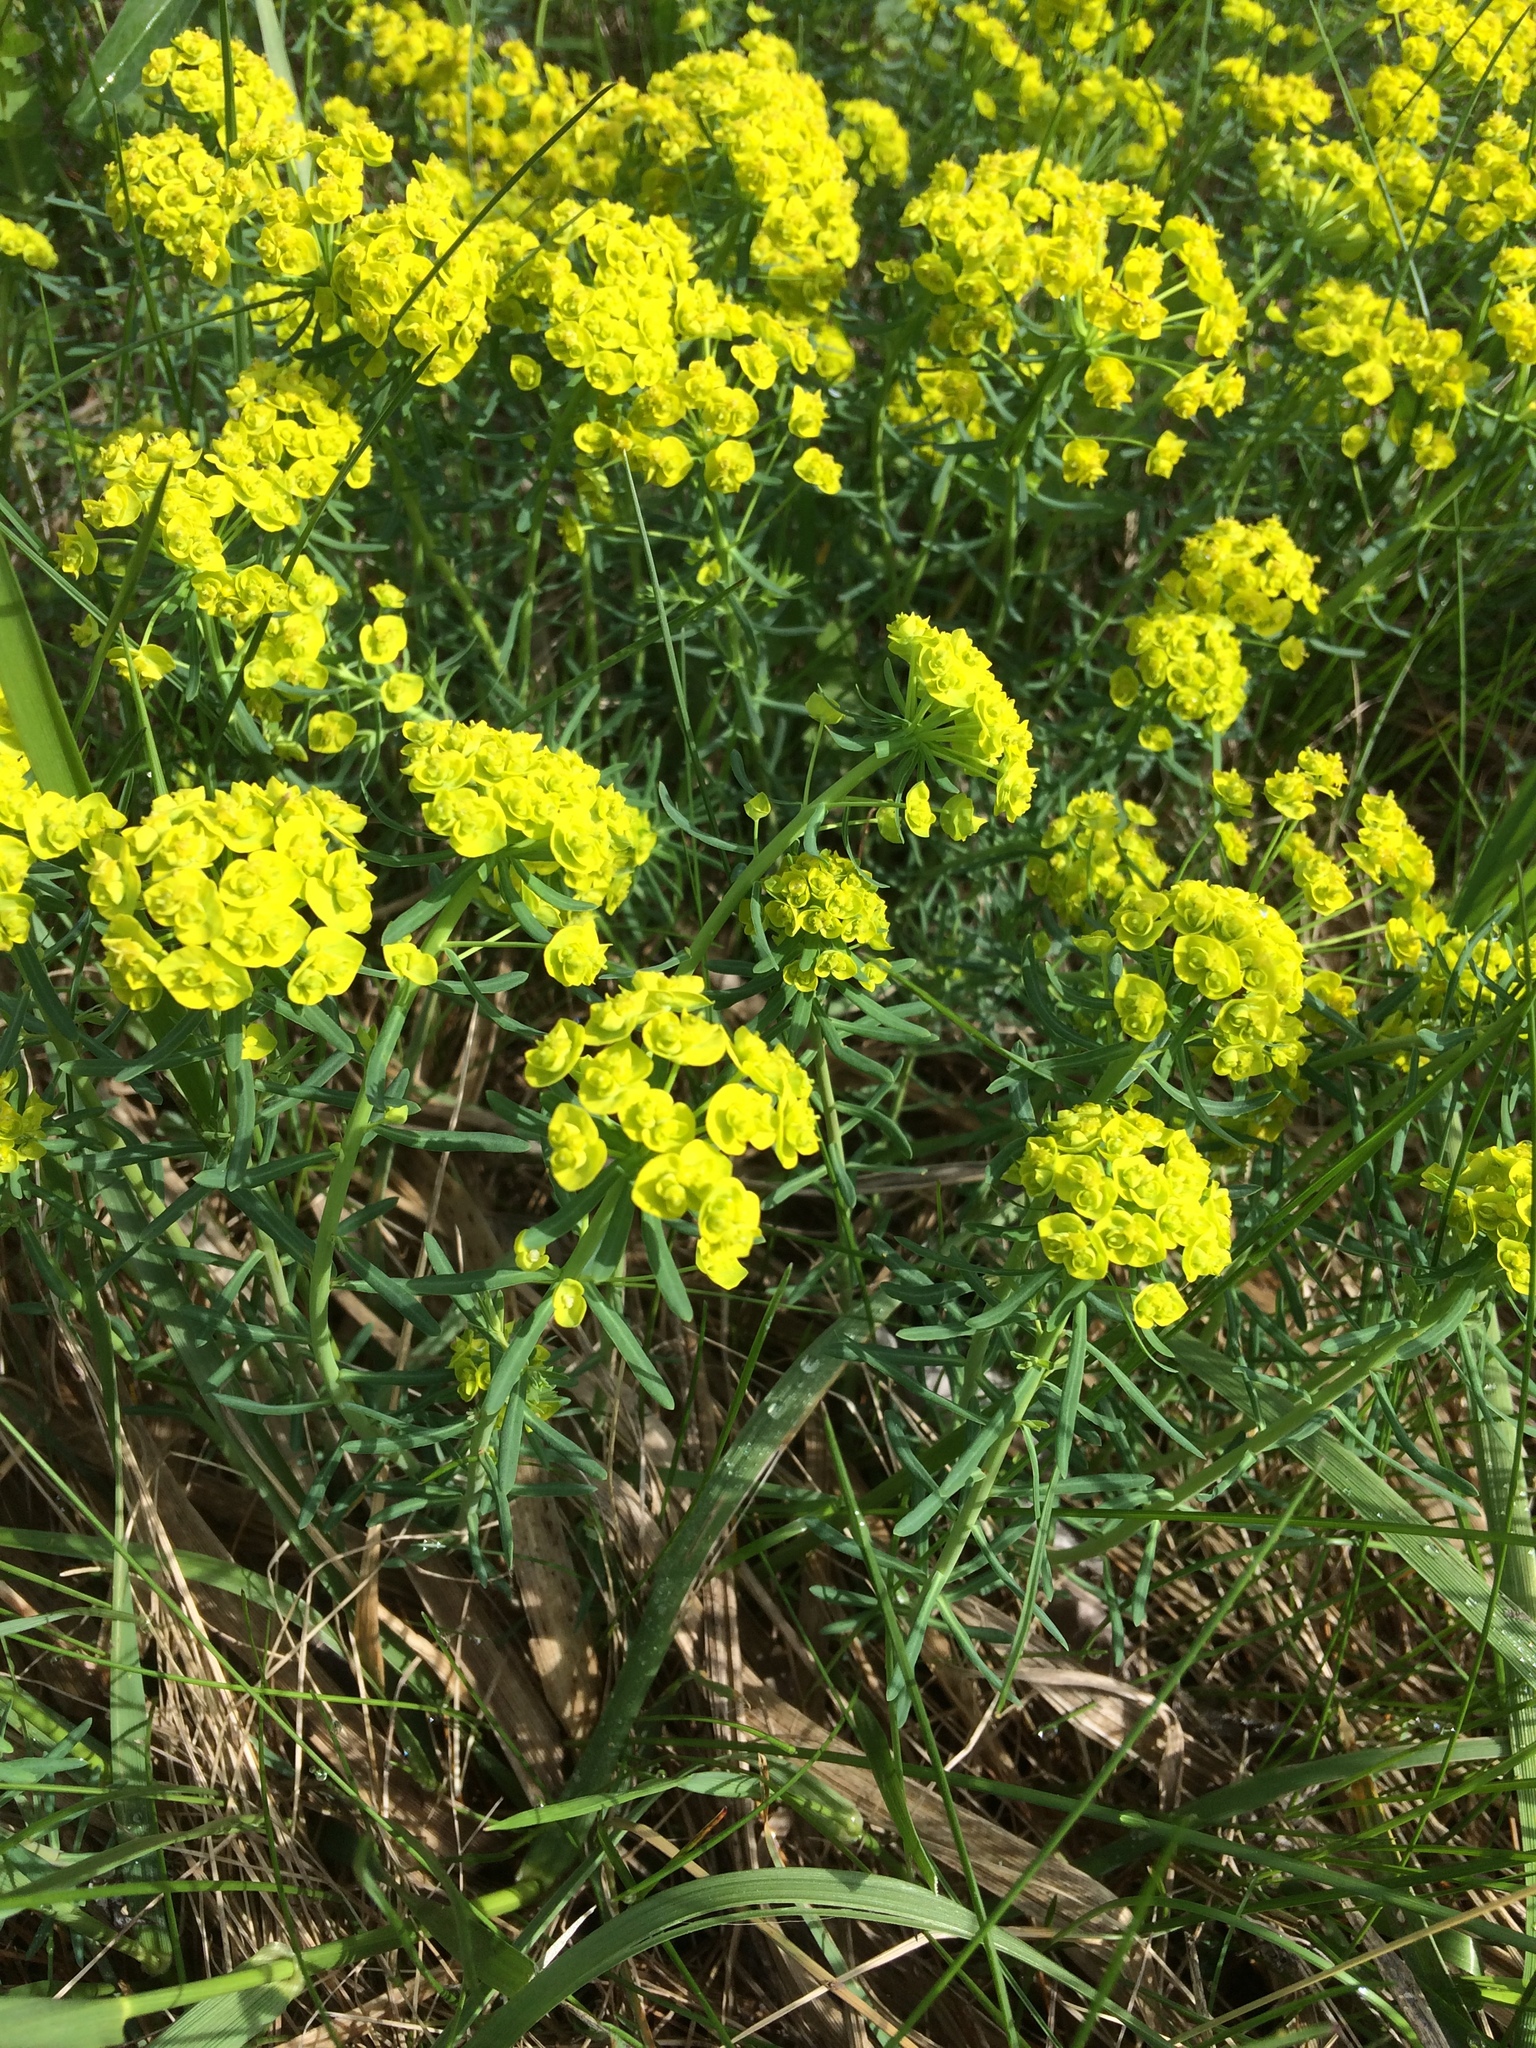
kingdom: Plantae
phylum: Tracheophyta
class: Magnoliopsida
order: Malpighiales
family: Euphorbiaceae
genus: Euphorbia
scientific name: Euphorbia cyparissias
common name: Cypress spurge
